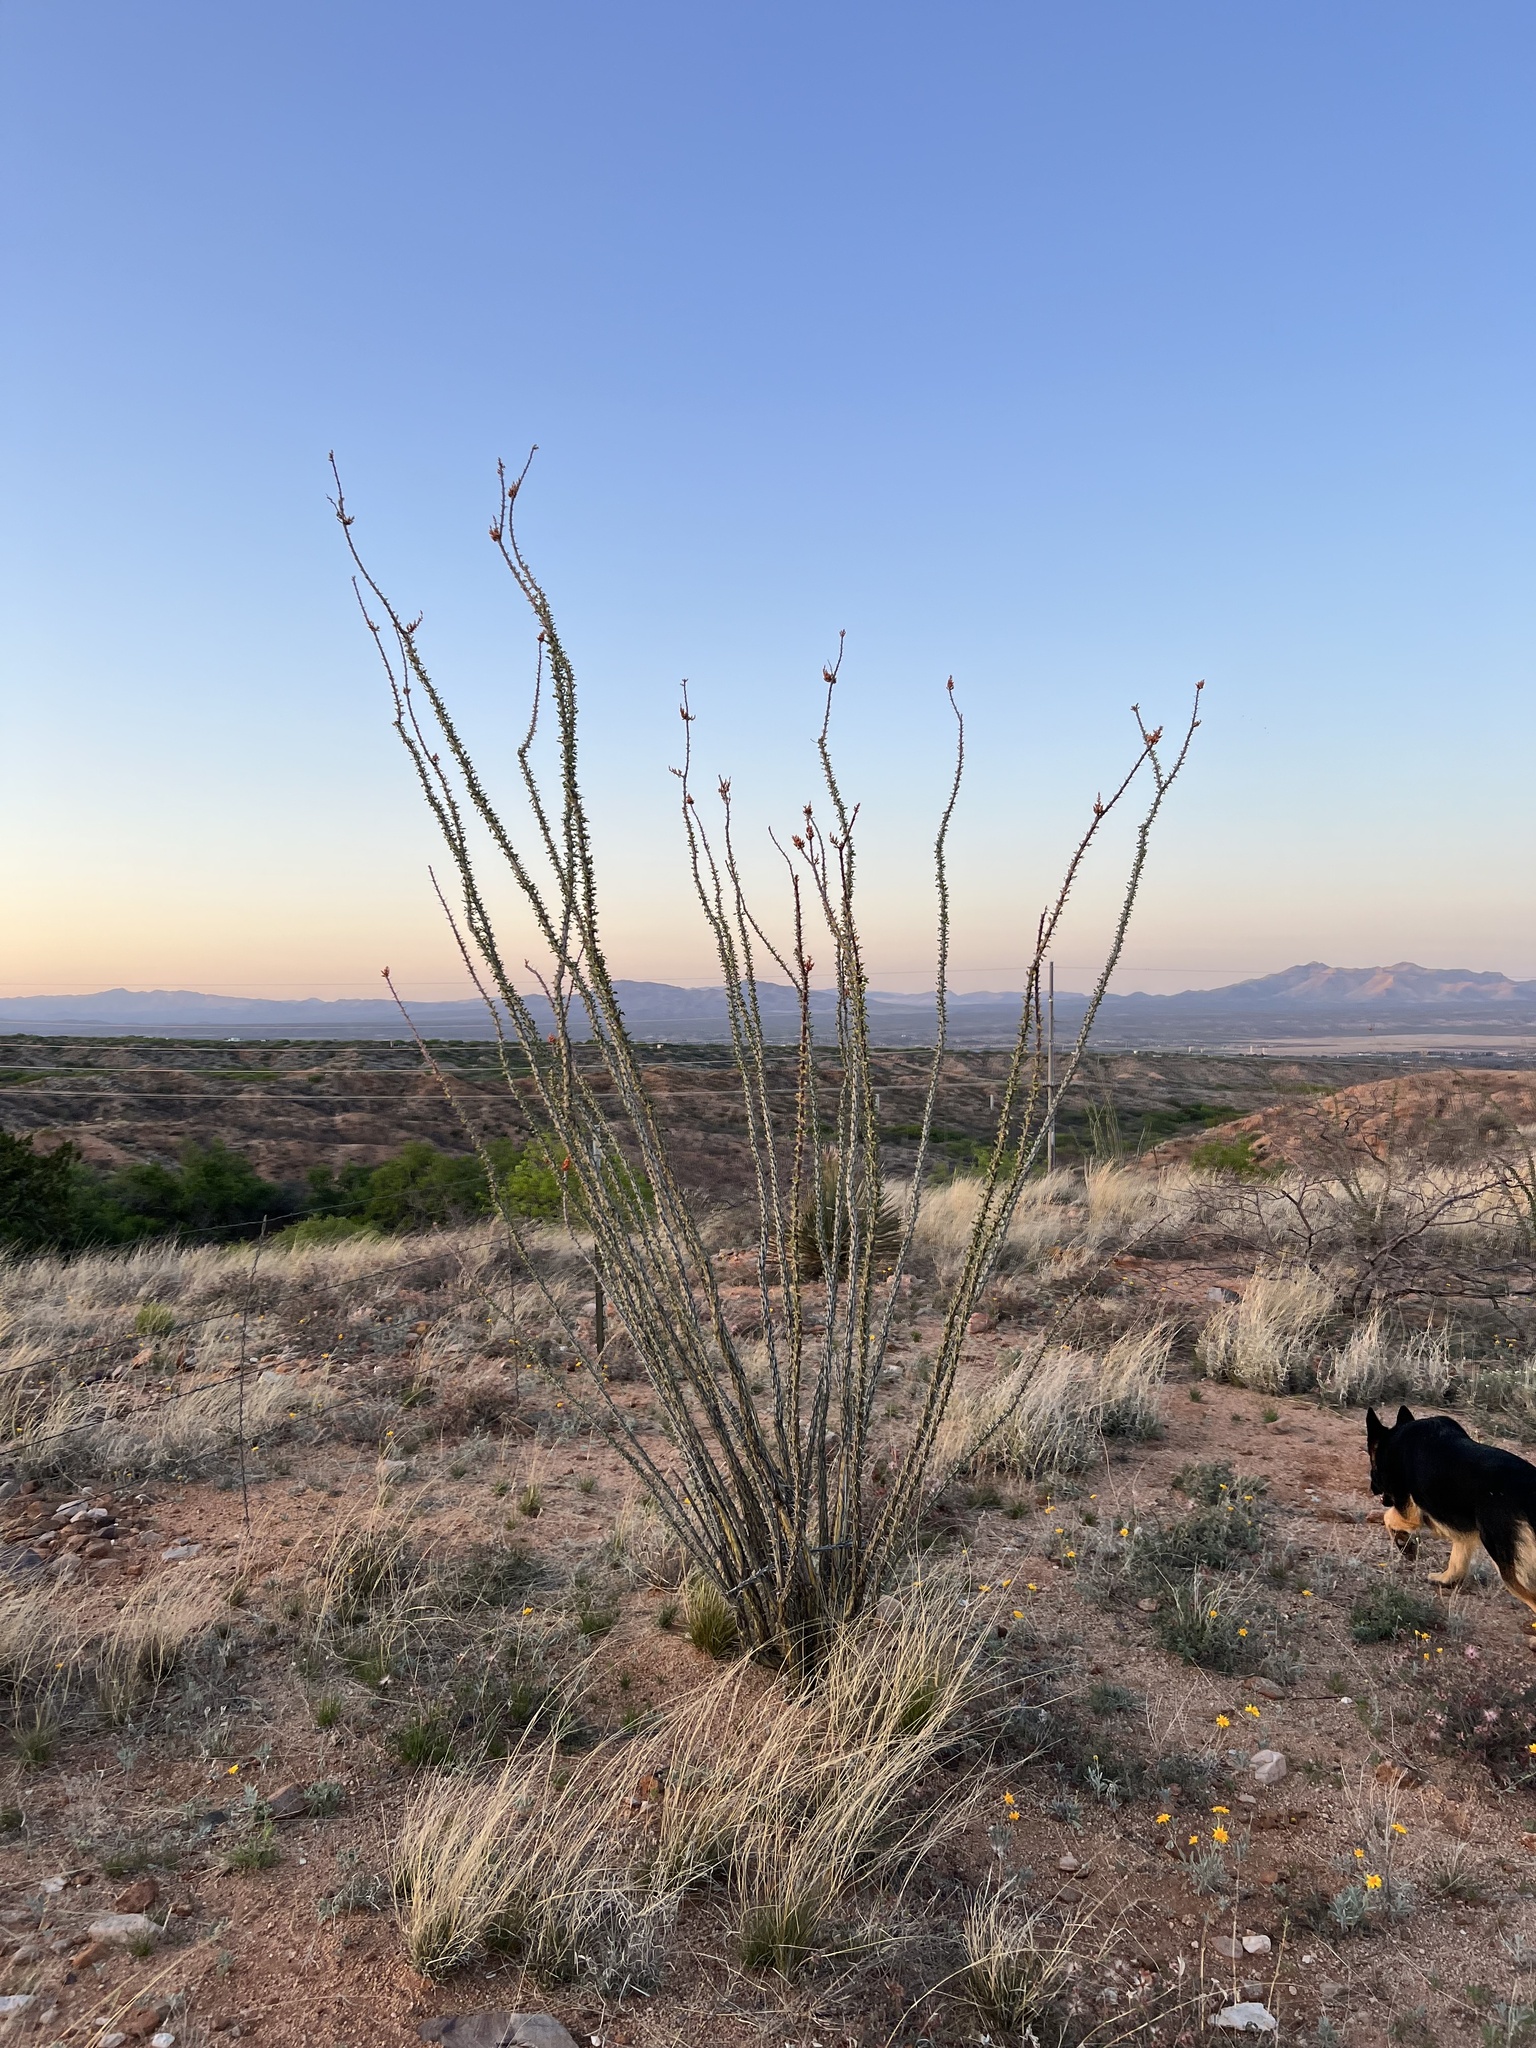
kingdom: Plantae
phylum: Tracheophyta
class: Magnoliopsida
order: Ericales
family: Fouquieriaceae
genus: Fouquieria
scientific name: Fouquieria splendens
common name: Vine-cactus
